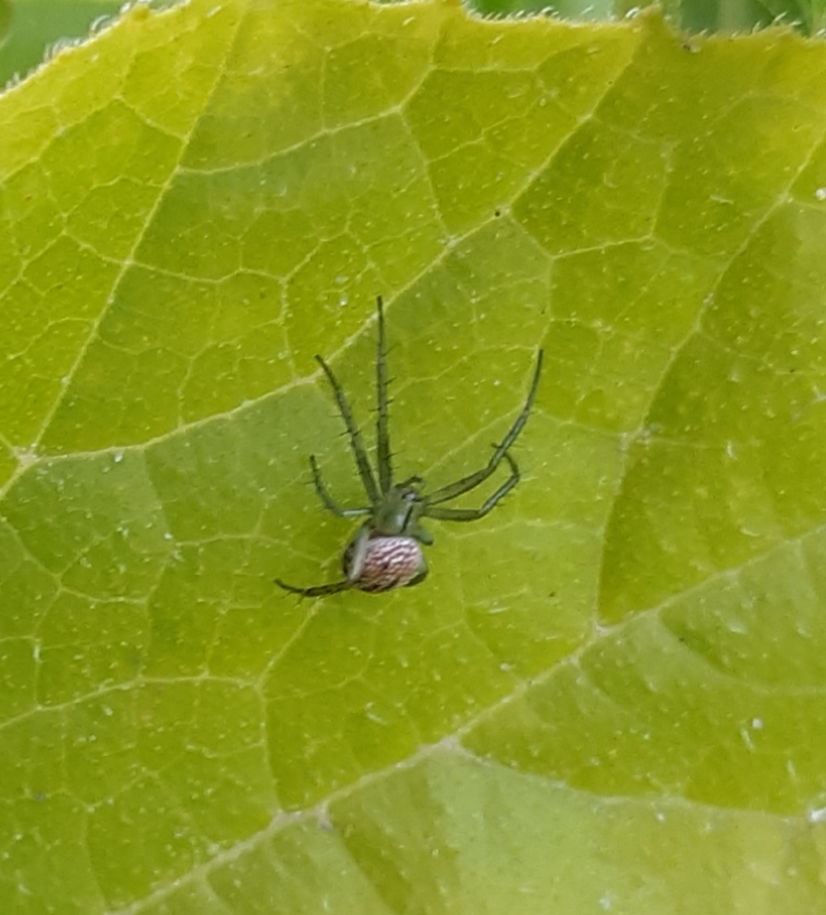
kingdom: Animalia
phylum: Arthropoda
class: Arachnida
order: Araneae
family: Araneidae
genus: Mangora
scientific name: Mangora gibberosa
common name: Lined orbweaver
